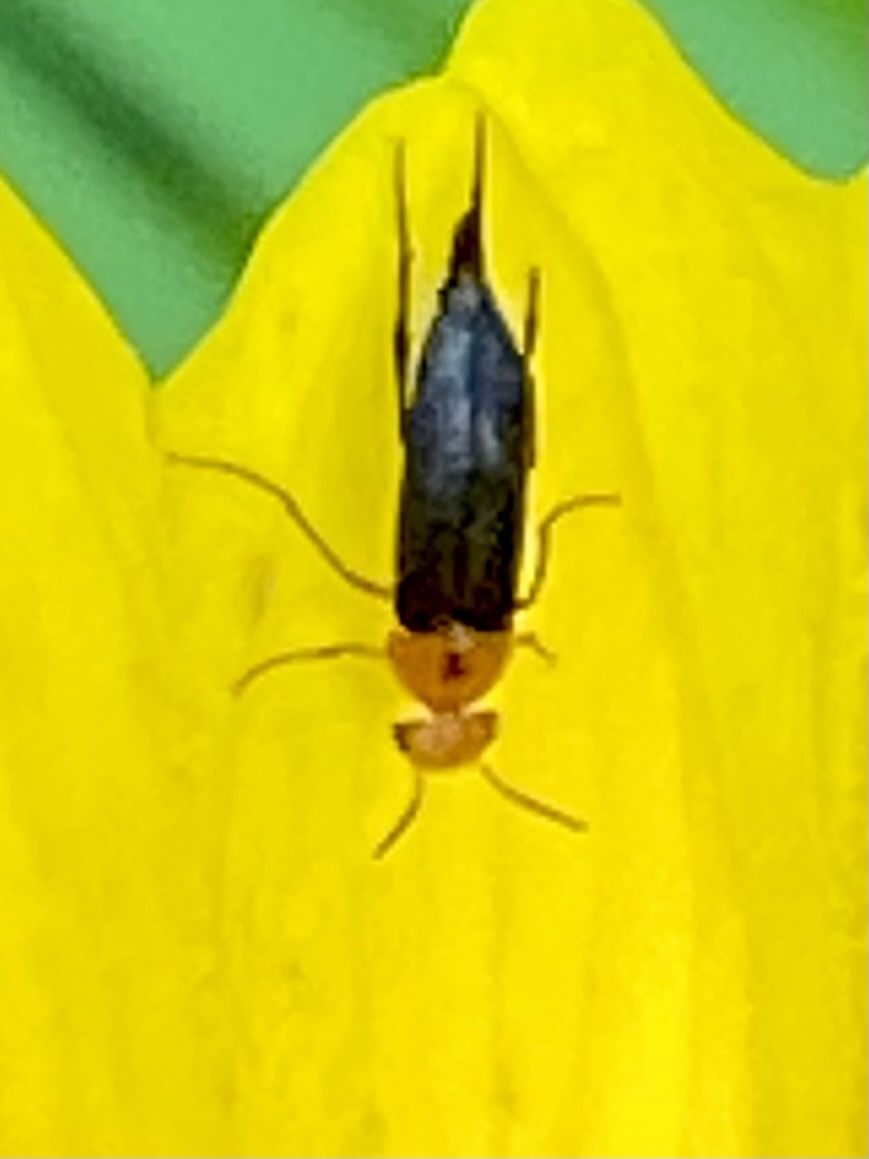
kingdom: Animalia
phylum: Arthropoda
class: Insecta
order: Coleoptera
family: Mordellidae
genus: Mordellistena
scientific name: Mordellistena cervicalis
